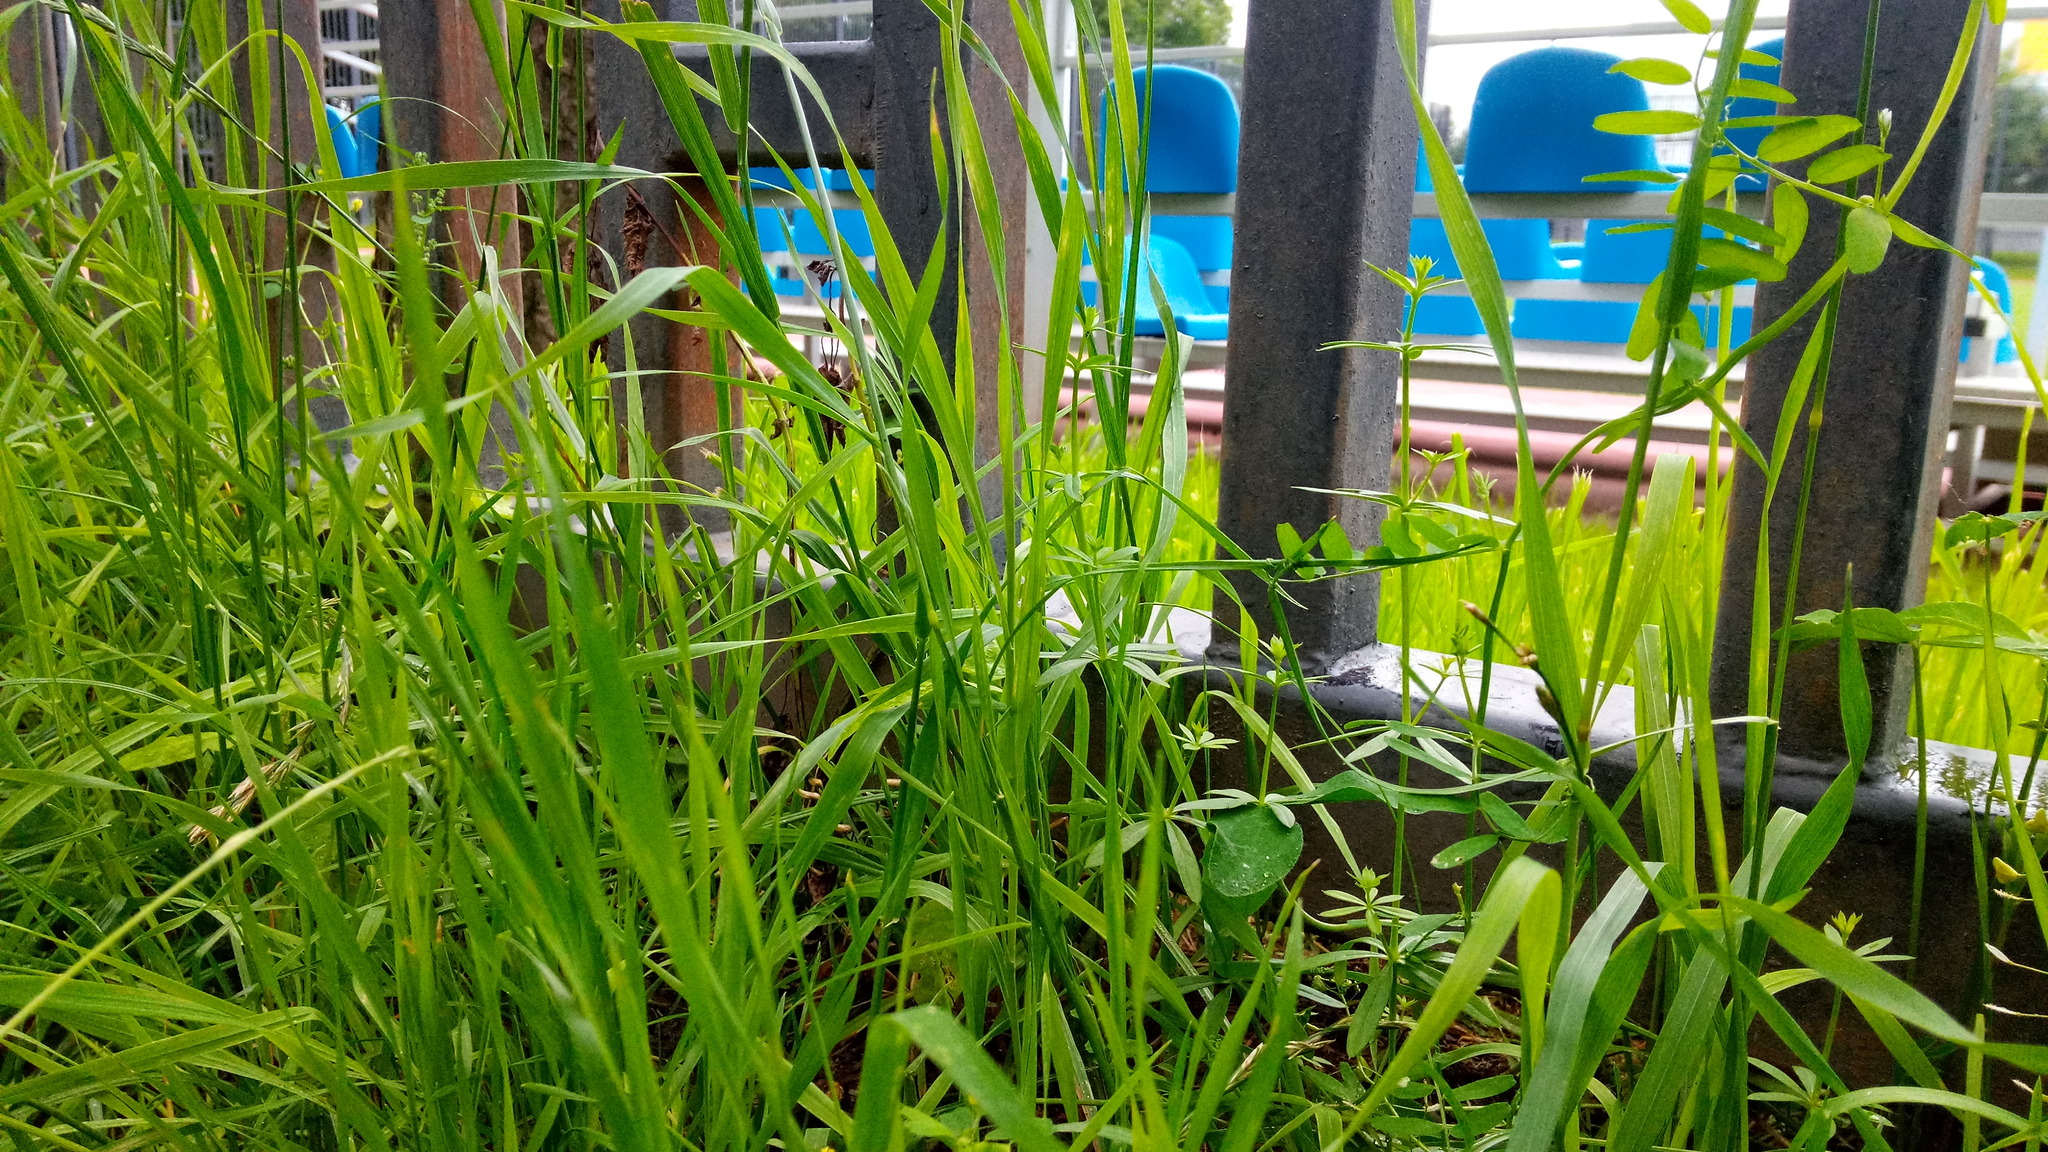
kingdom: Plantae
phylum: Tracheophyta
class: Magnoliopsida
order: Gentianales
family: Rubiaceae
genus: Galium
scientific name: Galium mollugo
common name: Hedge bedstraw
